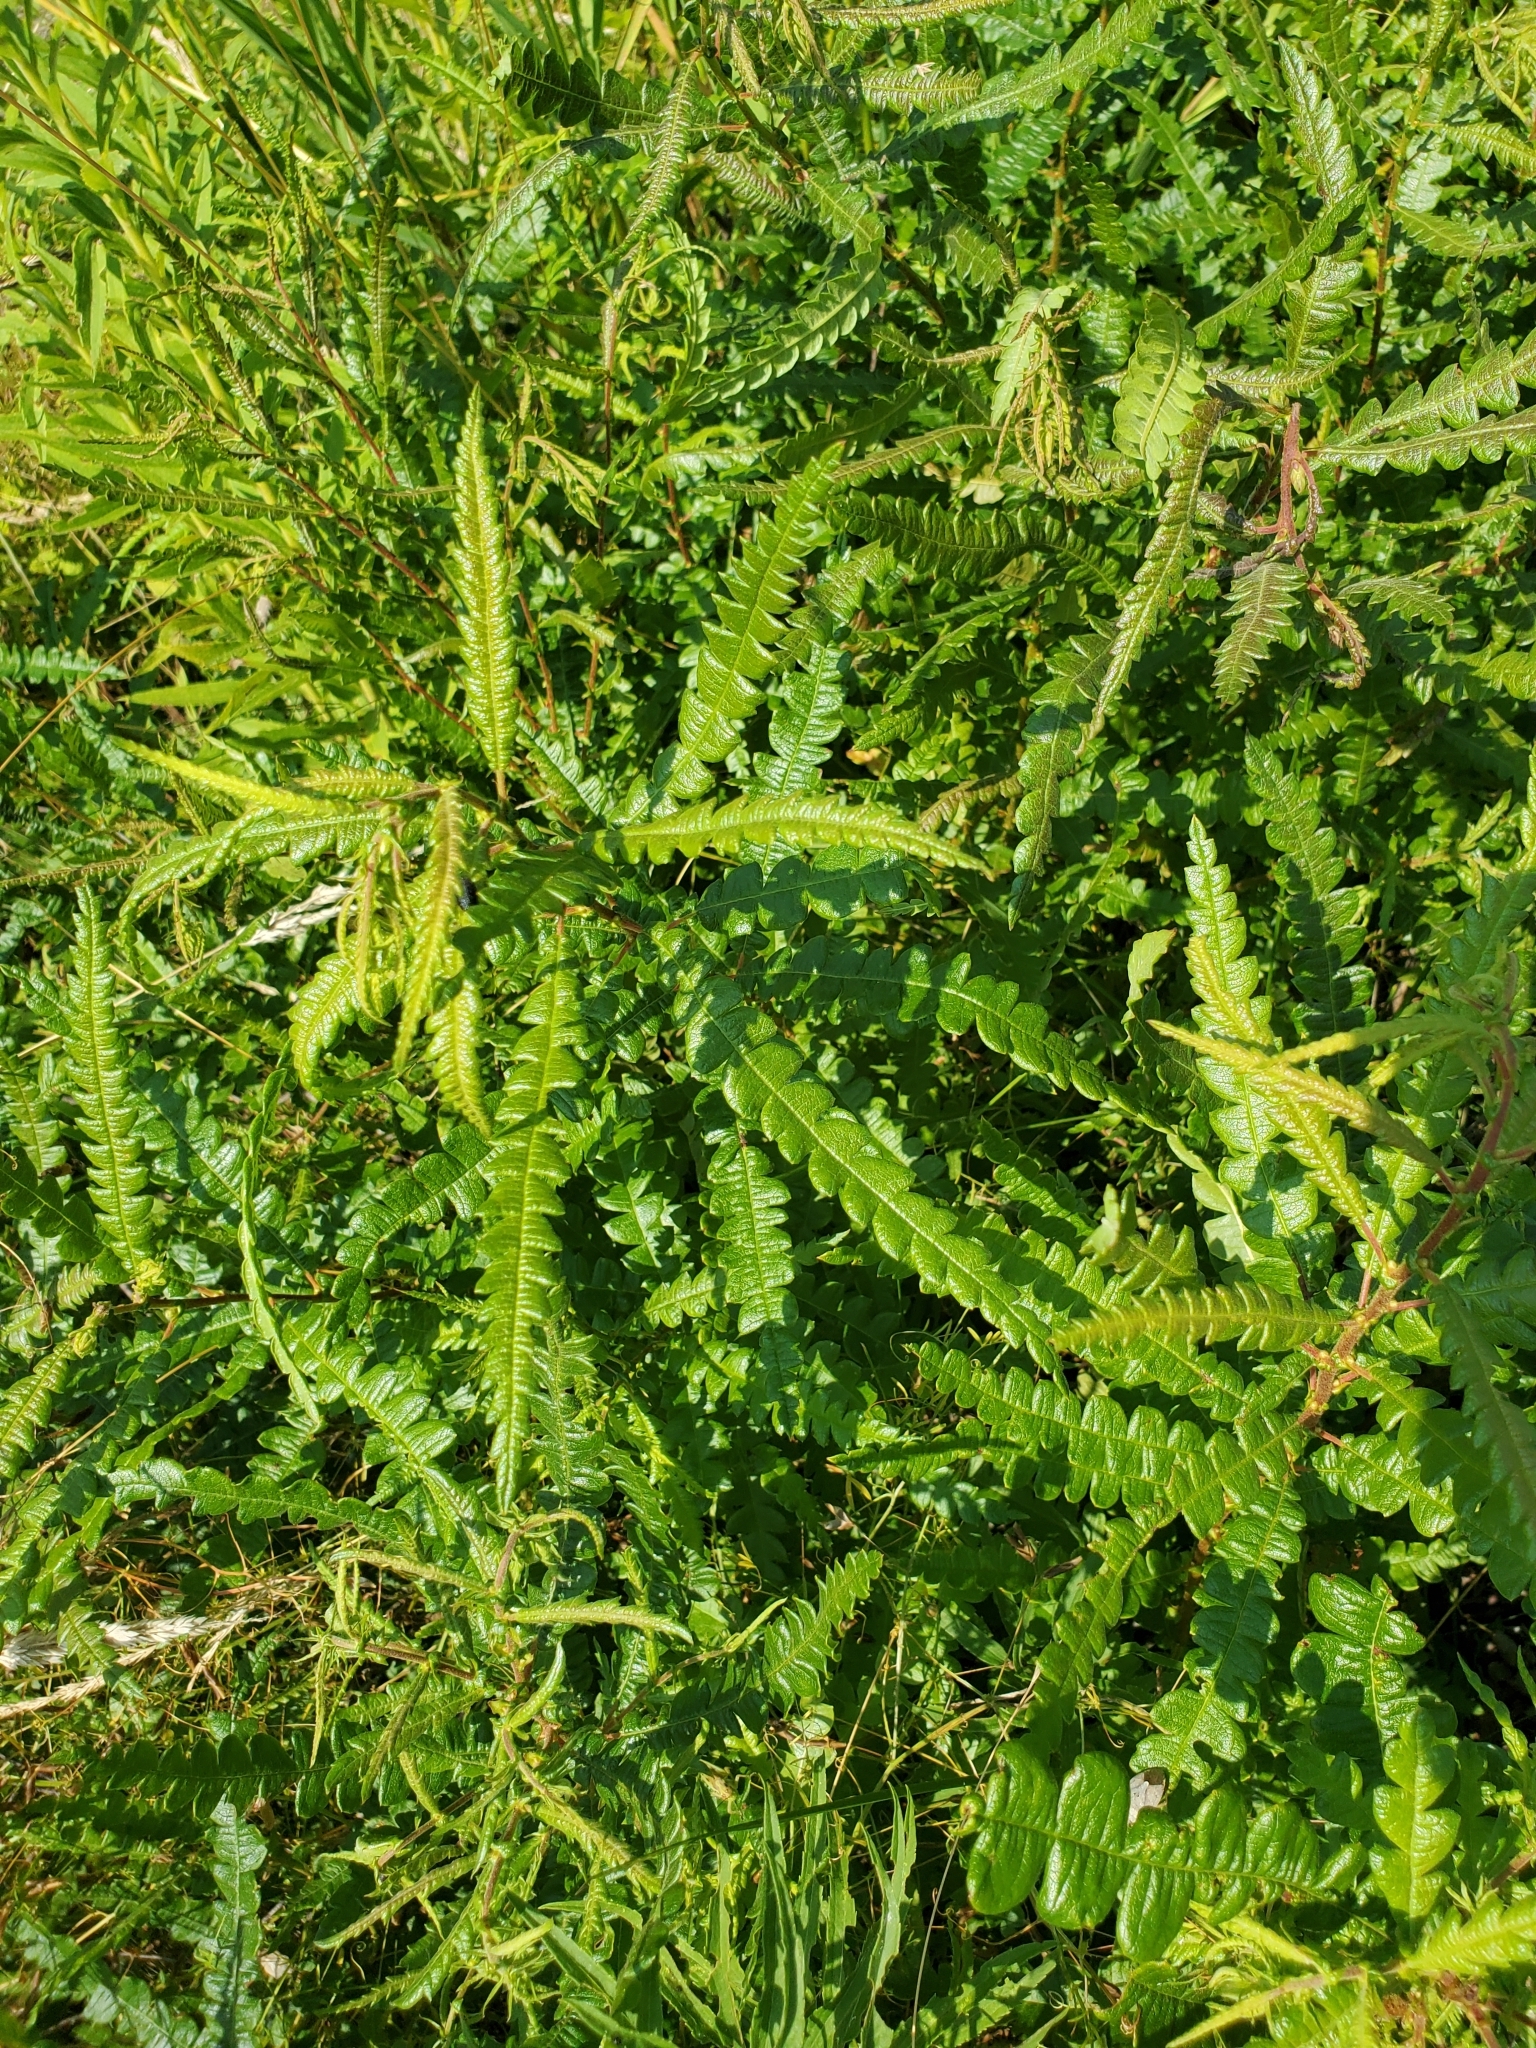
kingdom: Plantae
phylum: Tracheophyta
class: Magnoliopsida
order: Fagales
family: Myricaceae
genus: Comptonia
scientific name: Comptonia peregrina
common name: Sweet-fern
